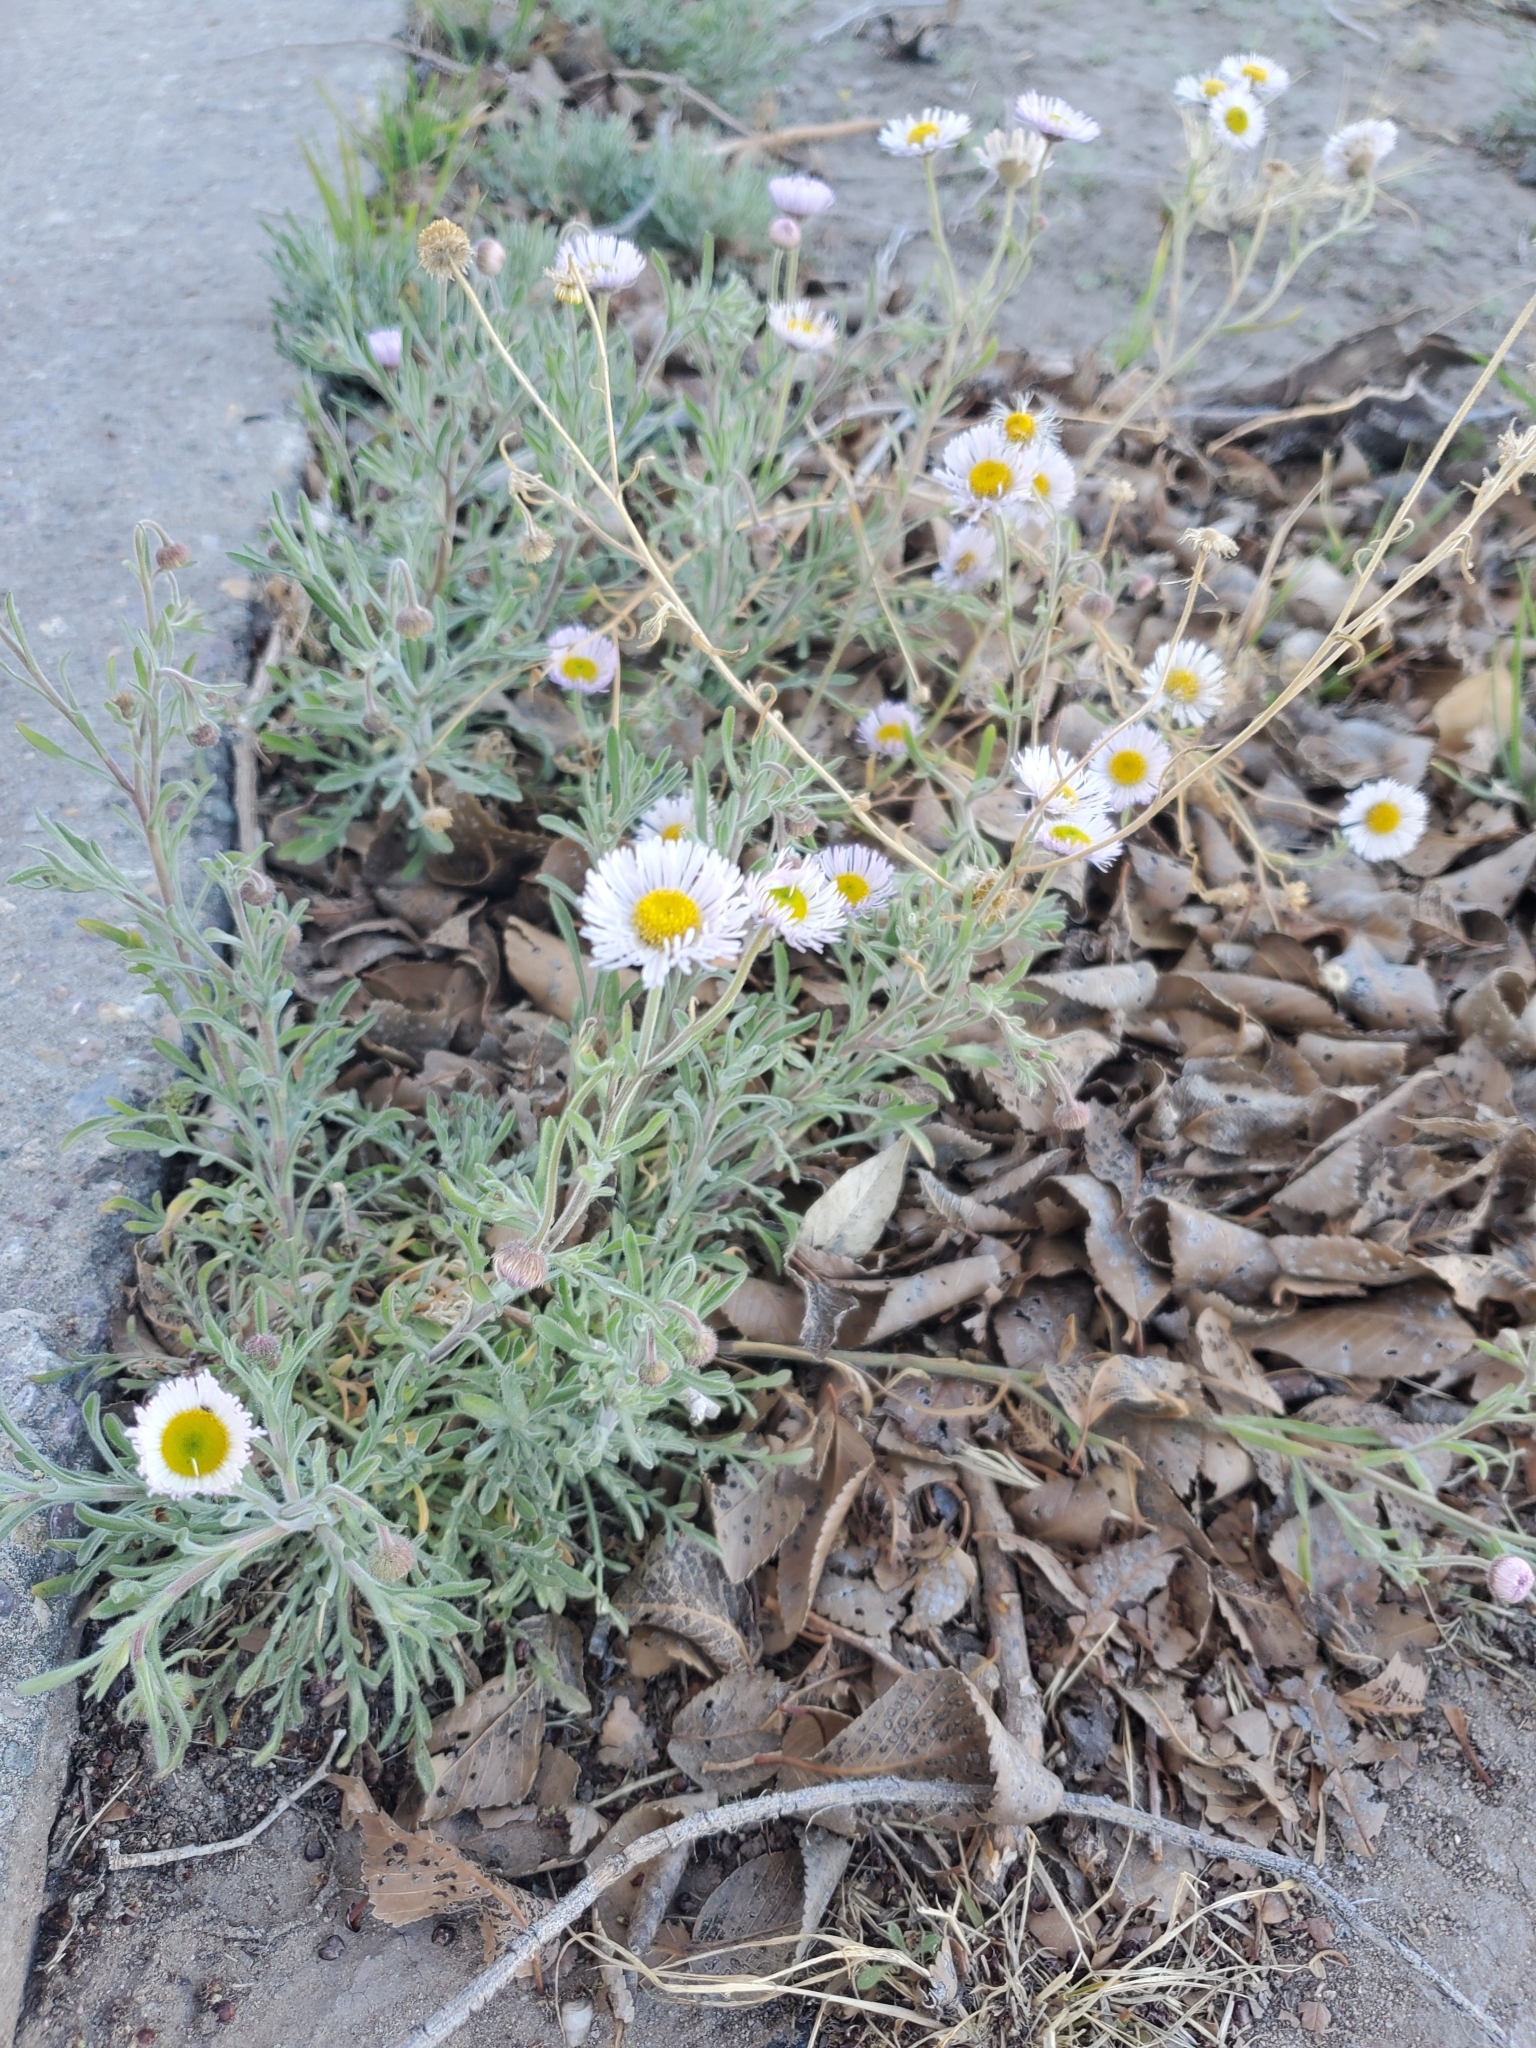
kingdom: Plantae
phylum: Tracheophyta
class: Magnoliopsida
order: Asterales
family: Asteraceae
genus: Erigeron
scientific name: Erigeron divergens
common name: Diffuse fleabane
